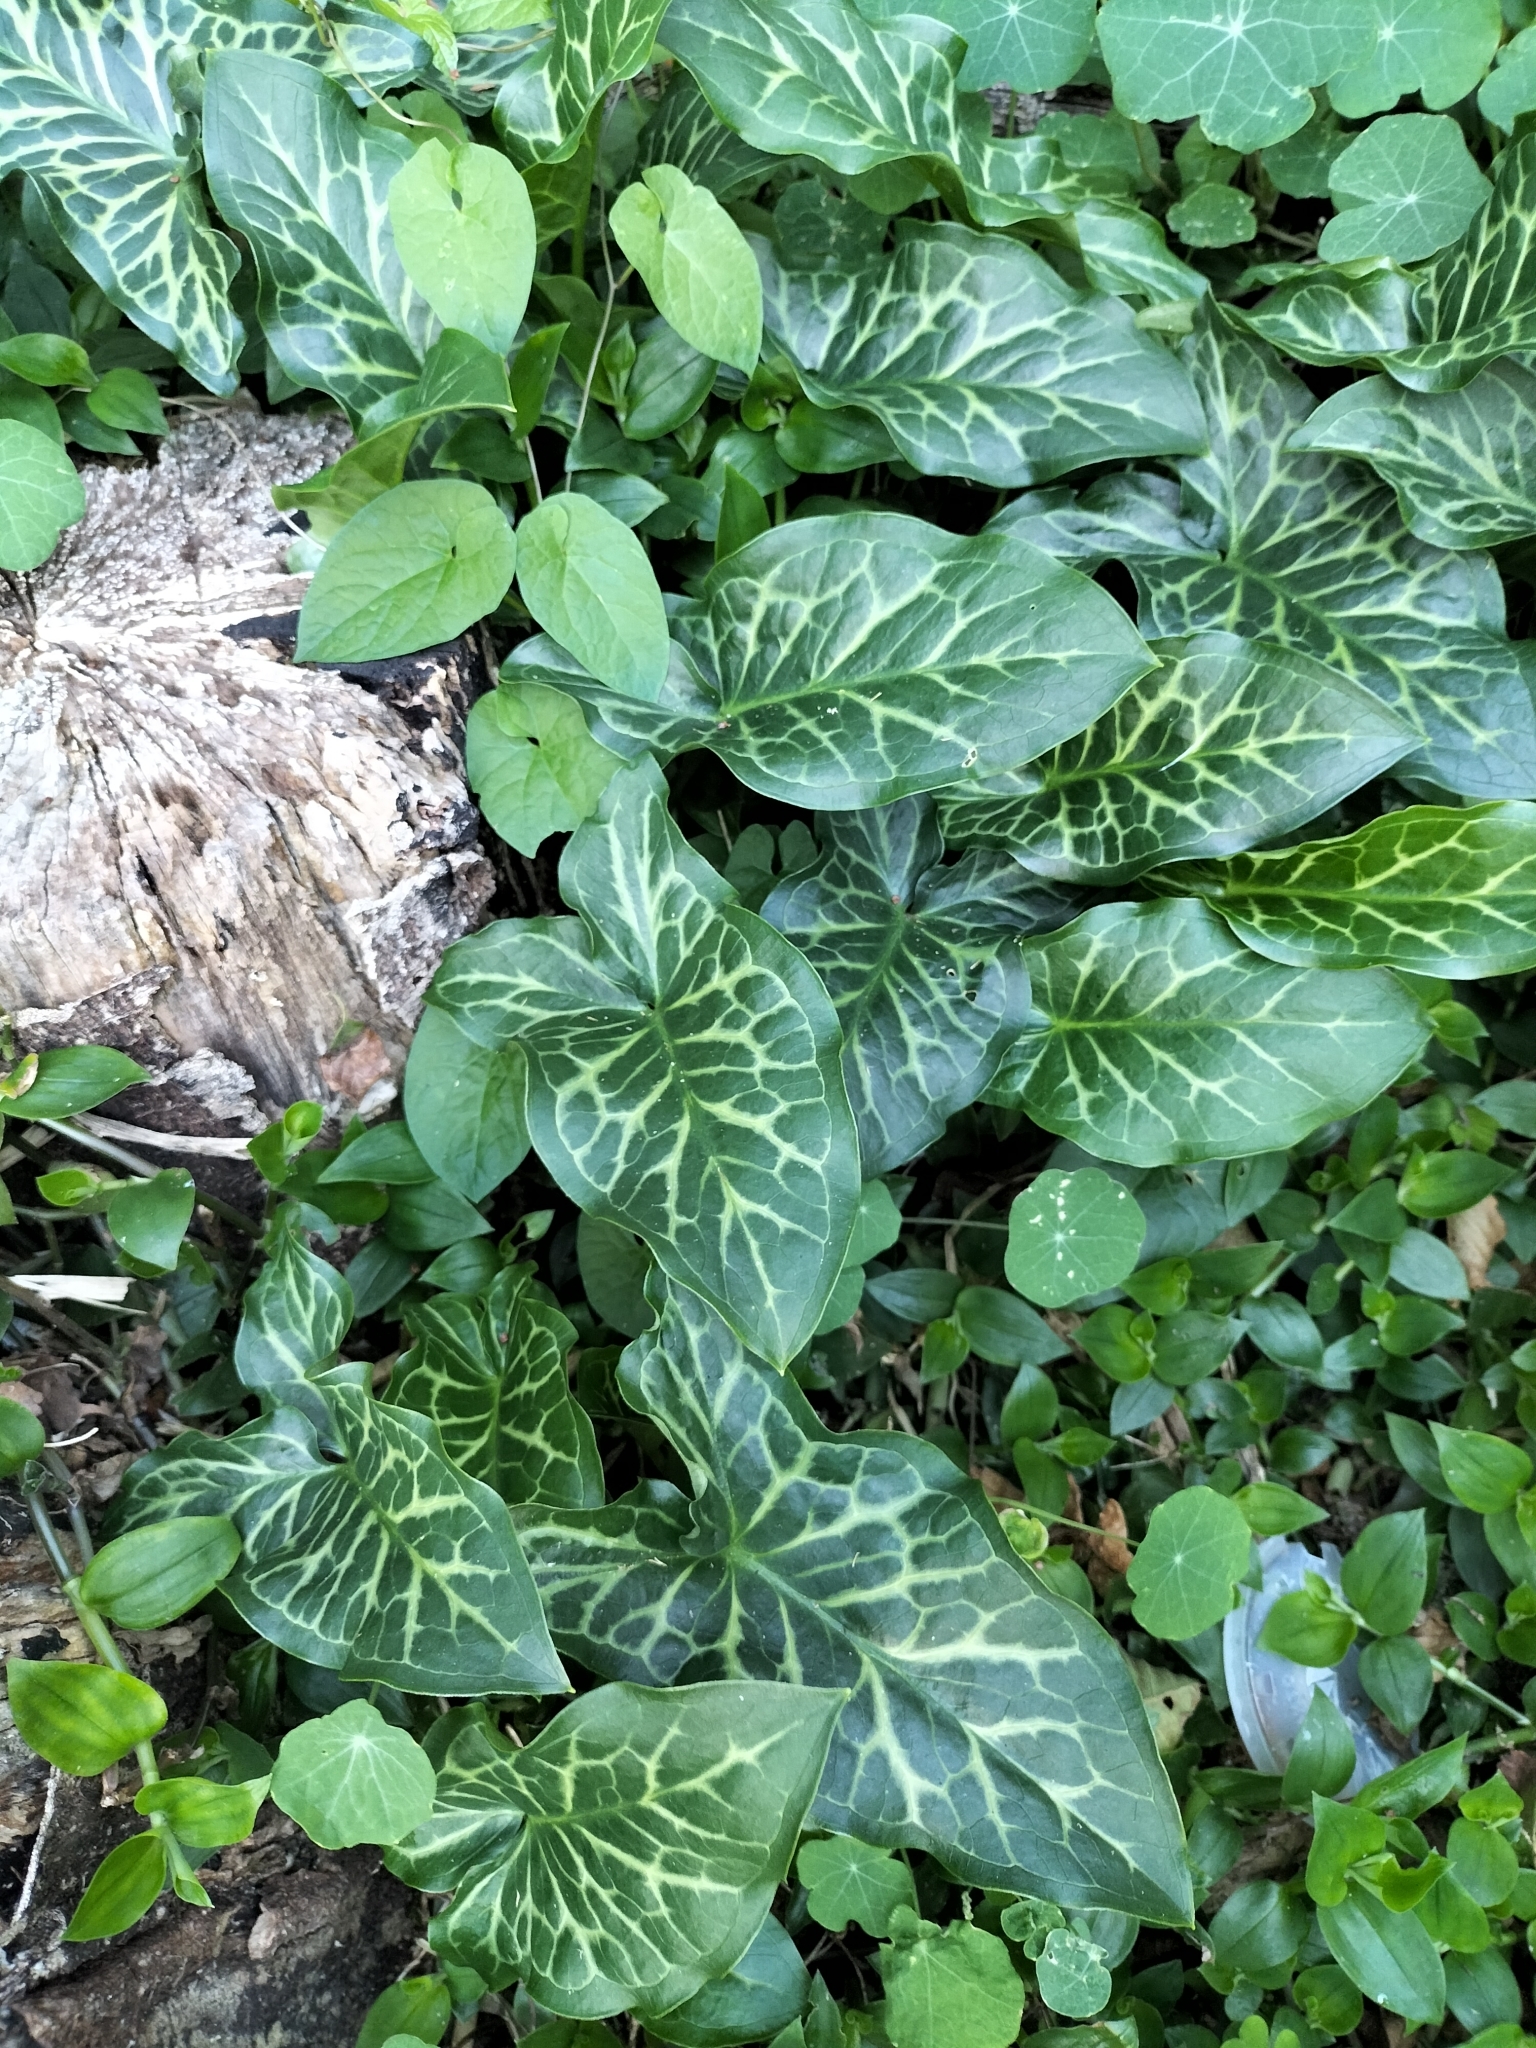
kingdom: Plantae
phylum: Tracheophyta
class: Liliopsida
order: Alismatales
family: Araceae
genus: Arum
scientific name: Arum italicum
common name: Italian lords-and-ladies
